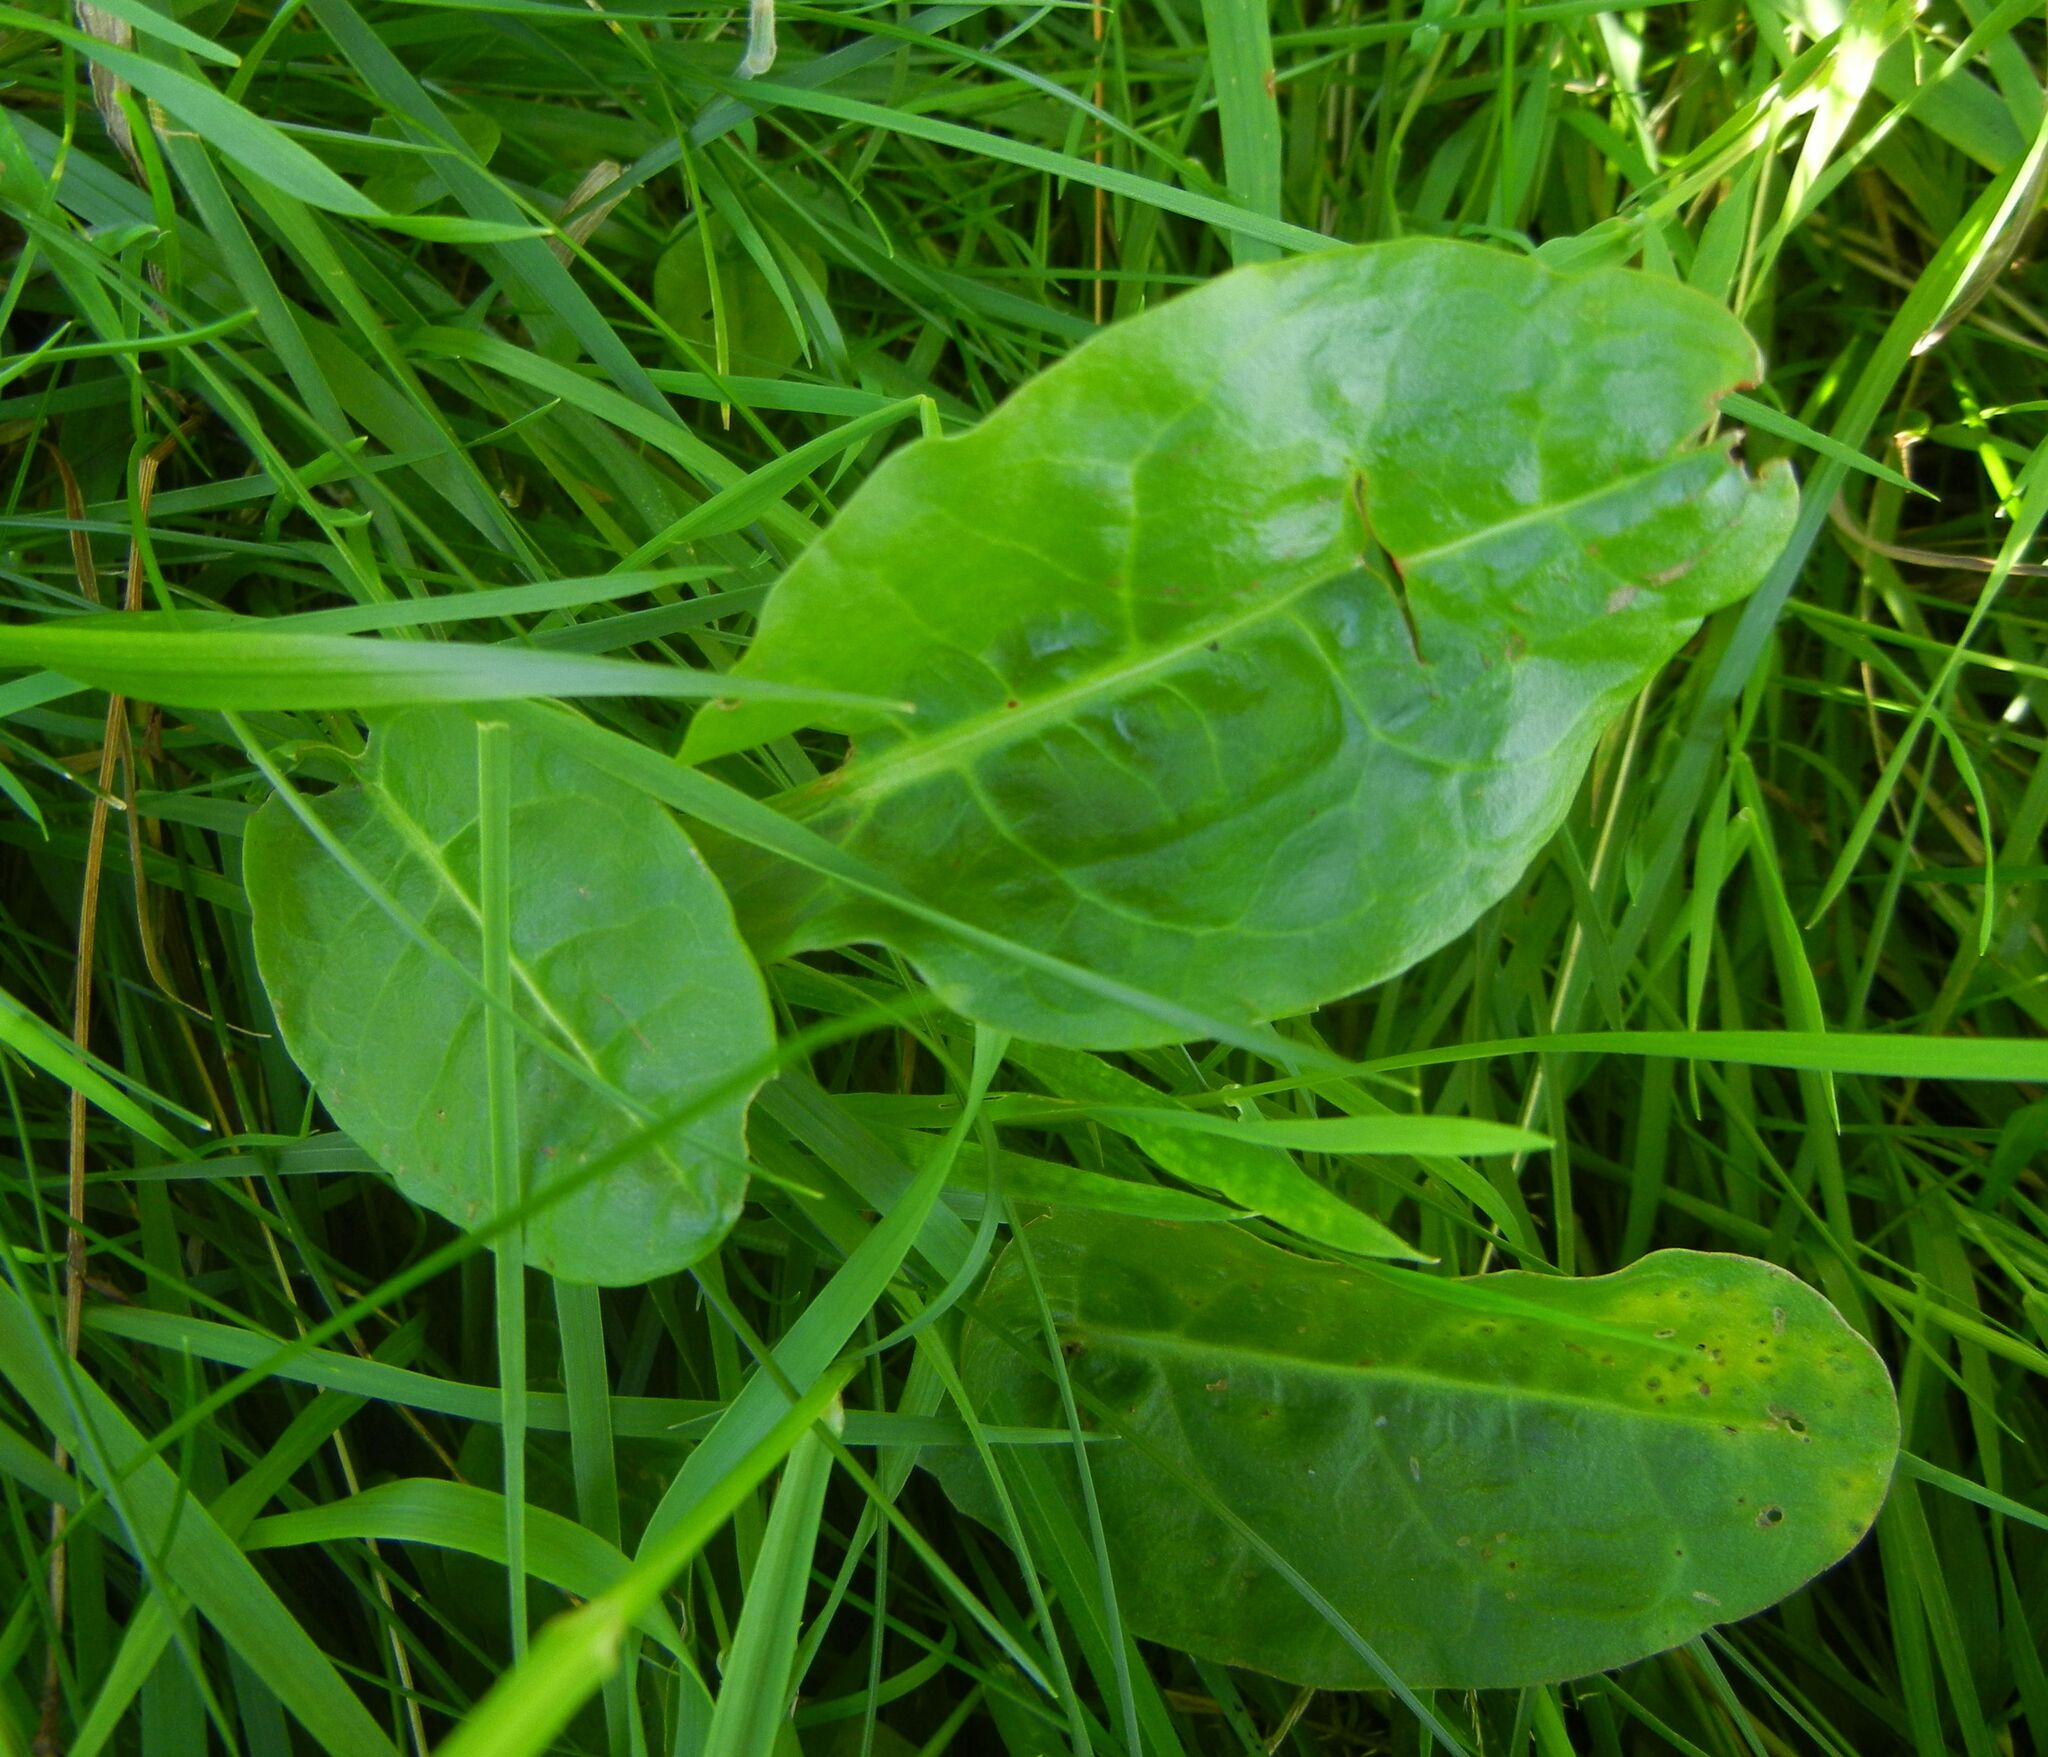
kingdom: Plantae
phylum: Tracheophyta
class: Magnoliopsida
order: Caryophyllales
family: Polygonaceae
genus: Rumex
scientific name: Rumex acetosa
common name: Garden sorrel
